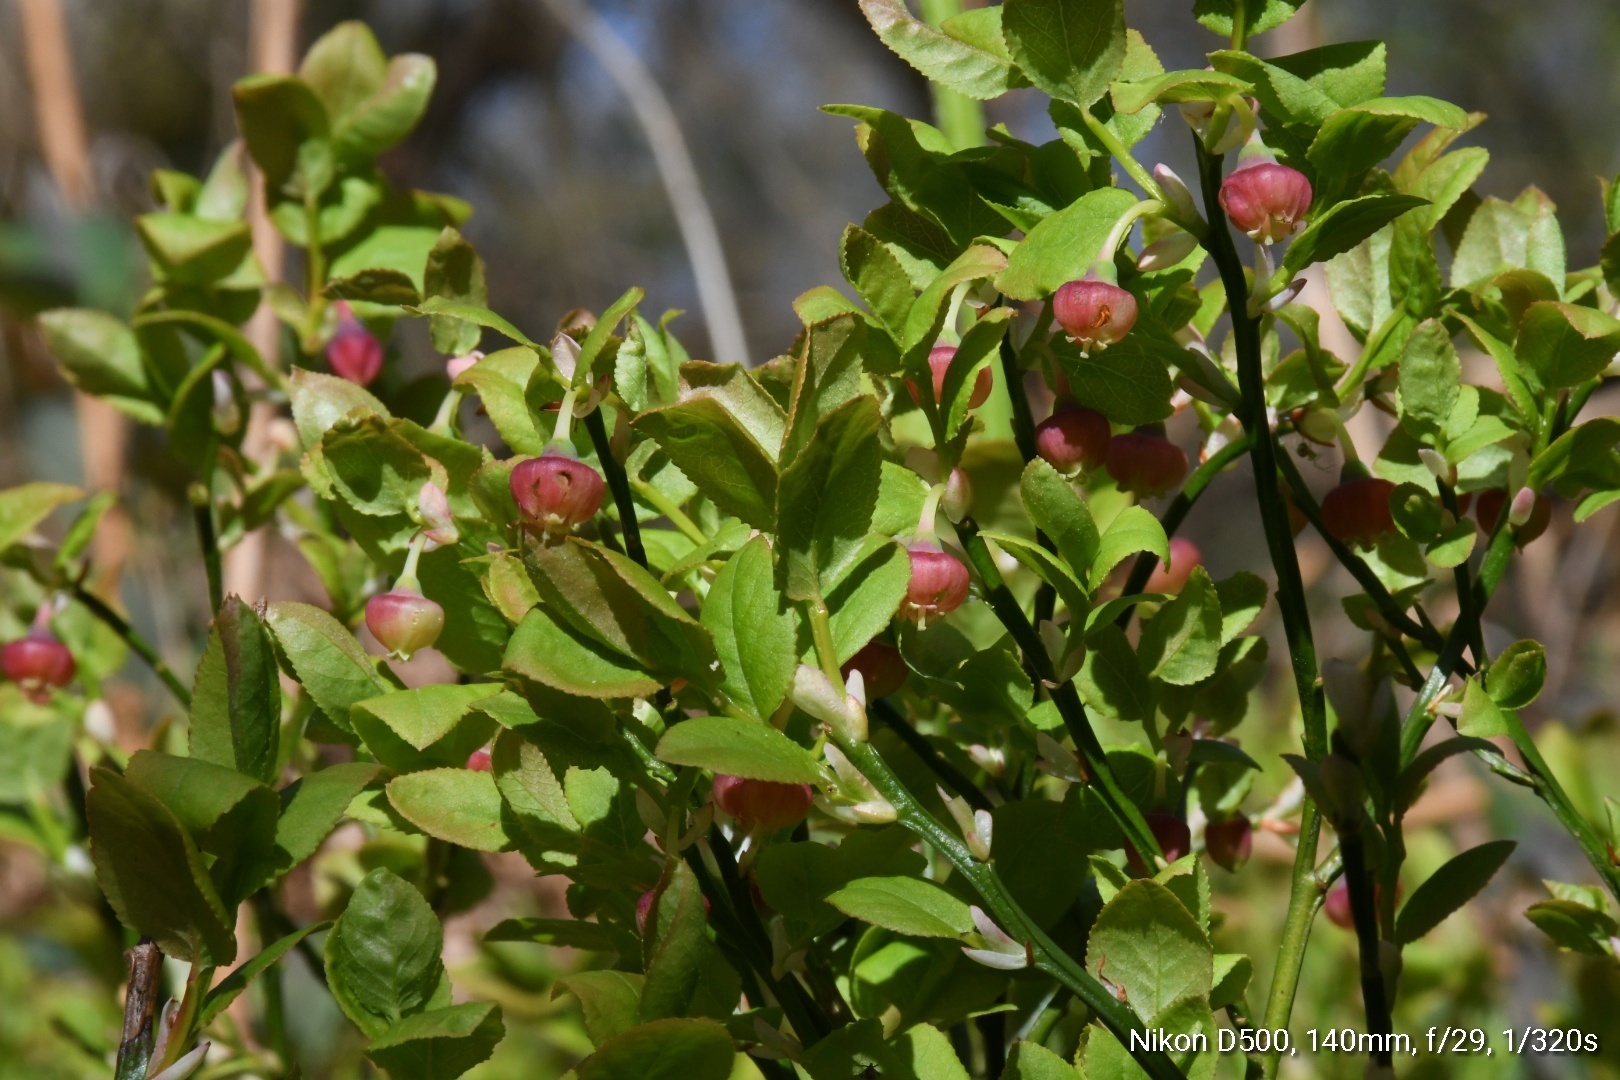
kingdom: Plantae
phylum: Tracheophyta
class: Magnoliopsida
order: Ericales
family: Ericaceae
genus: Vaccinium
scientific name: Vaccinium myrtillus
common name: Bilberry
